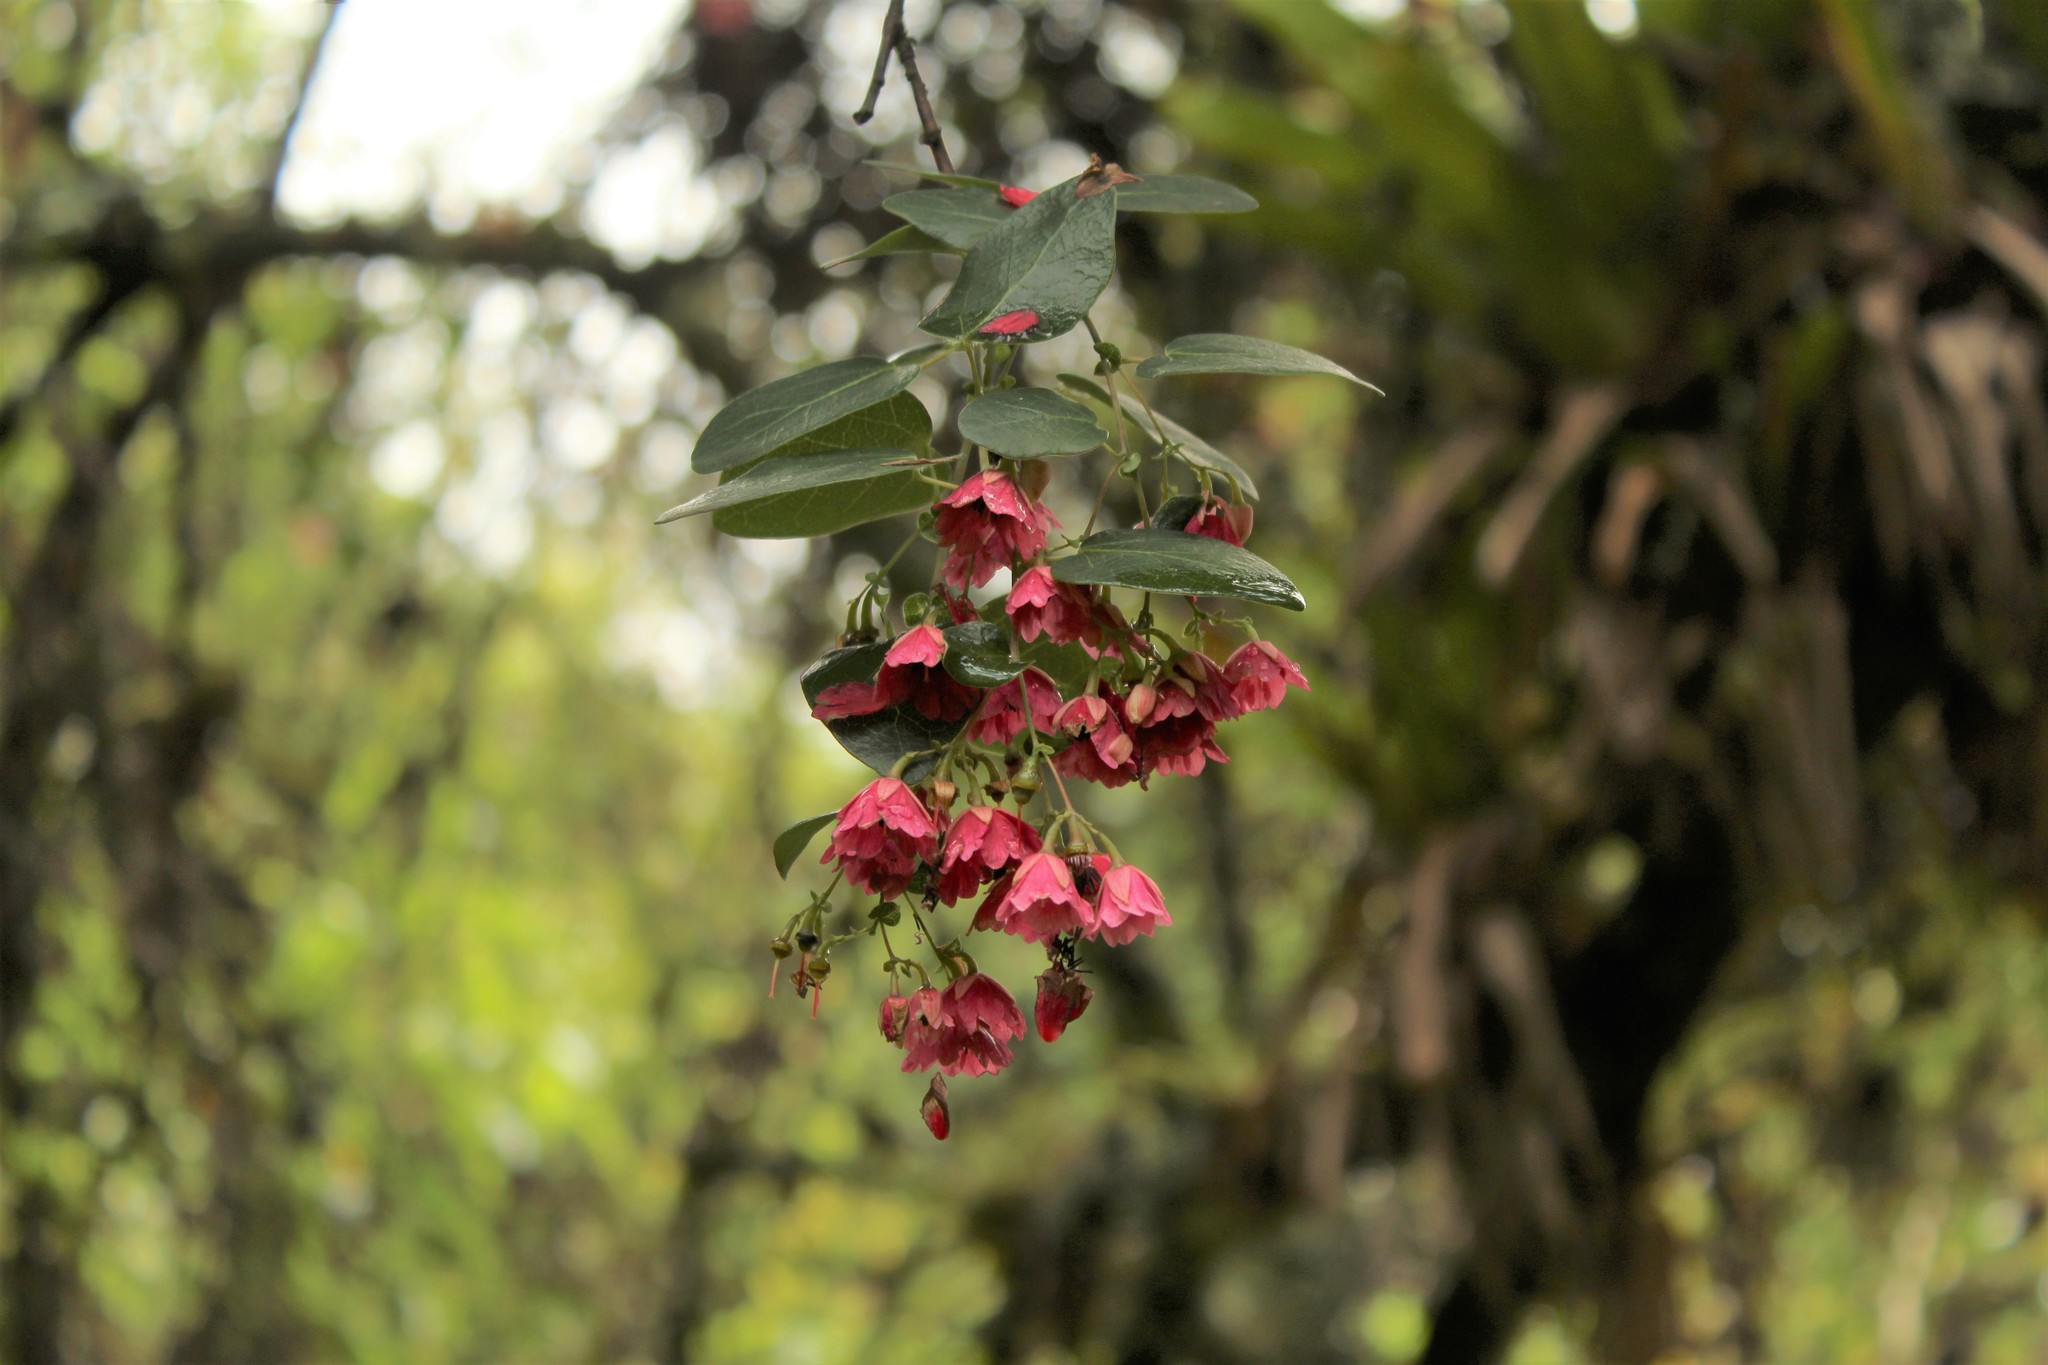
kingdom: Plantae
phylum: Tracheophyta
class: Magnoliopsida
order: Oxalidales
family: Elaeocarpaceae
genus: Vallea
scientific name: Vallea stipularis
